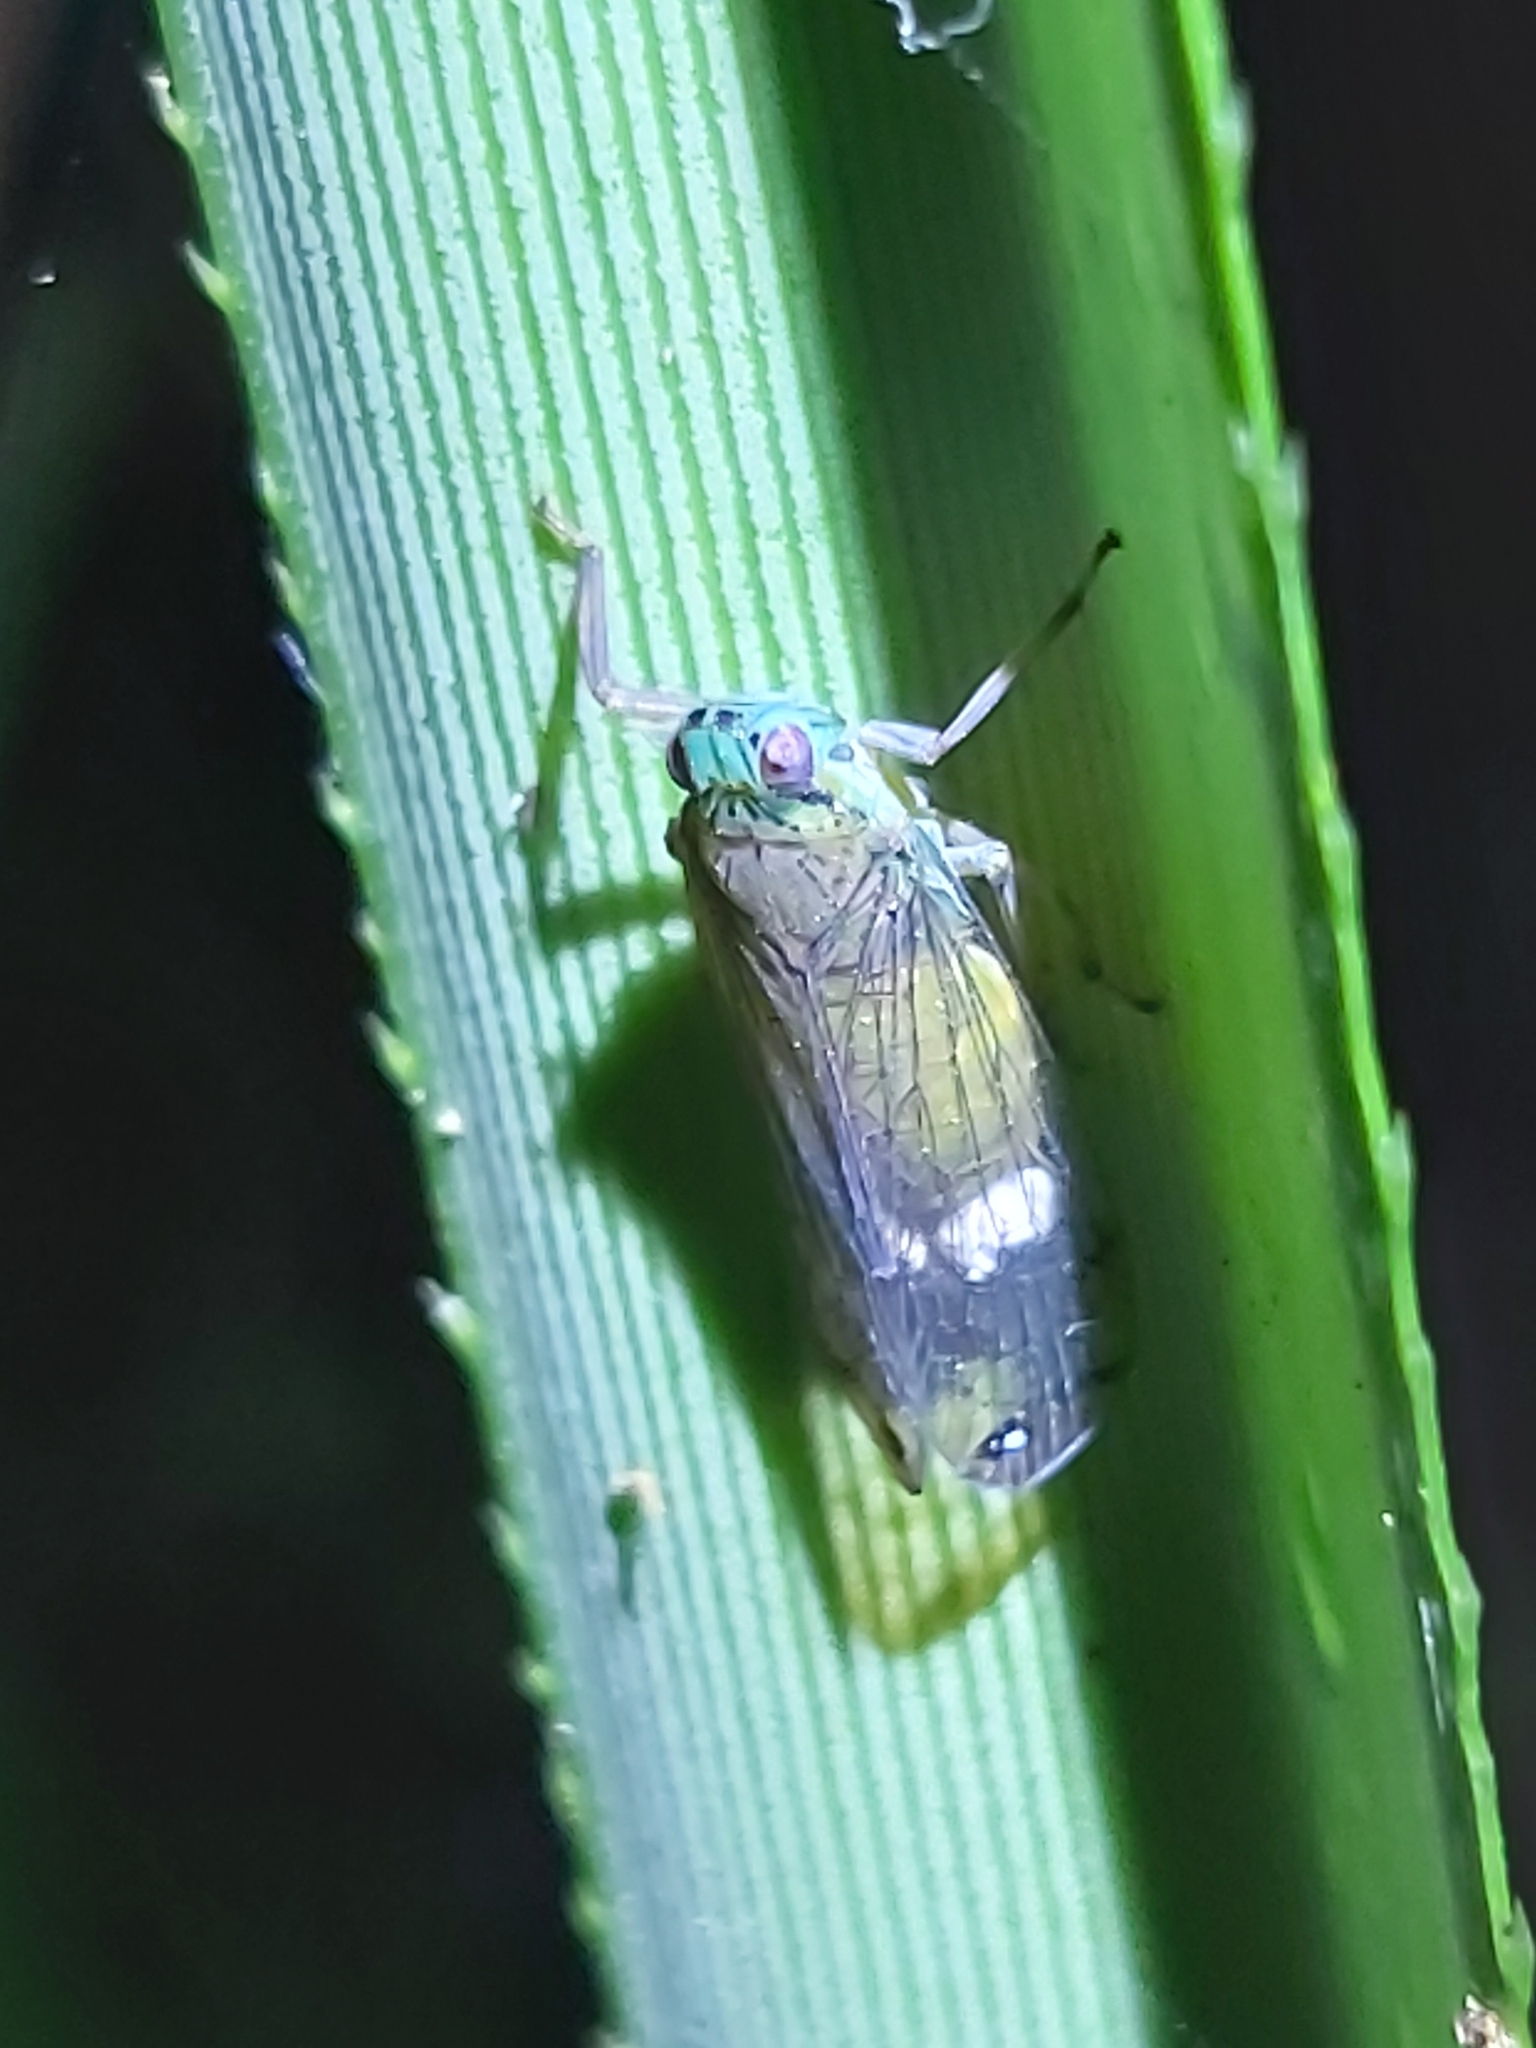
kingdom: Animalia
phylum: Arthropoda
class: Insecta
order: Hemiptera
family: Lophopidae
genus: Magia
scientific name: Magia subocellata
